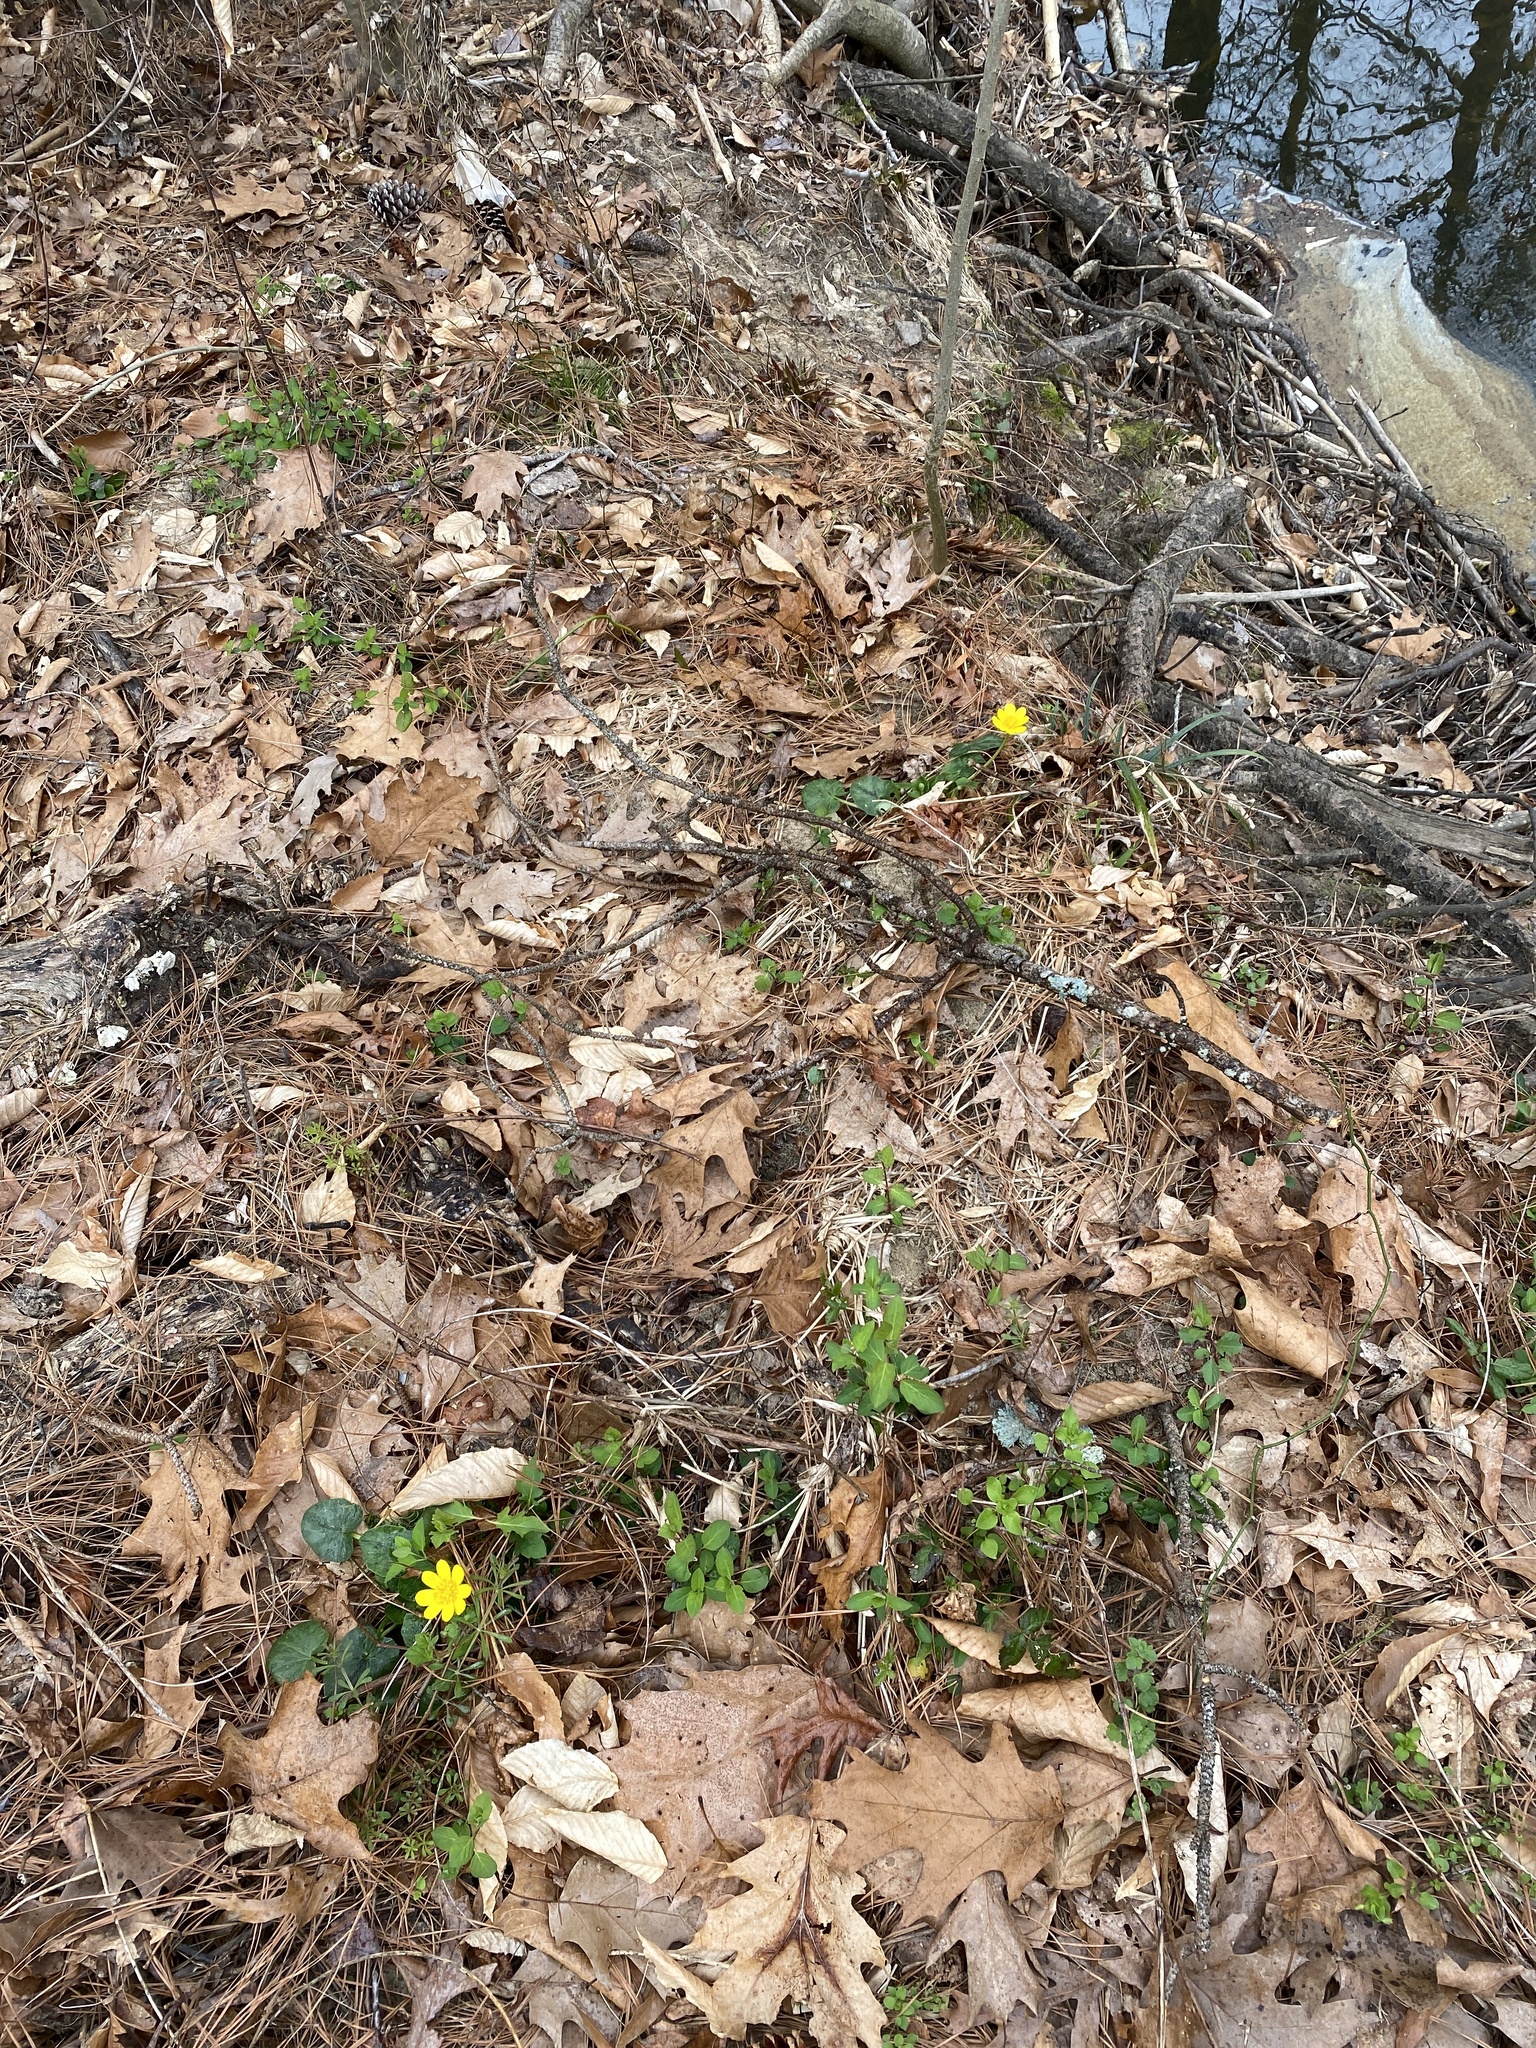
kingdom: Plantae
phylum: Tracheophyta
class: Magnoliopsida
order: Ranunculales
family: Ranunculaceae
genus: Ficaria
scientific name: Ficaria verna
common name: Lesser celandine
